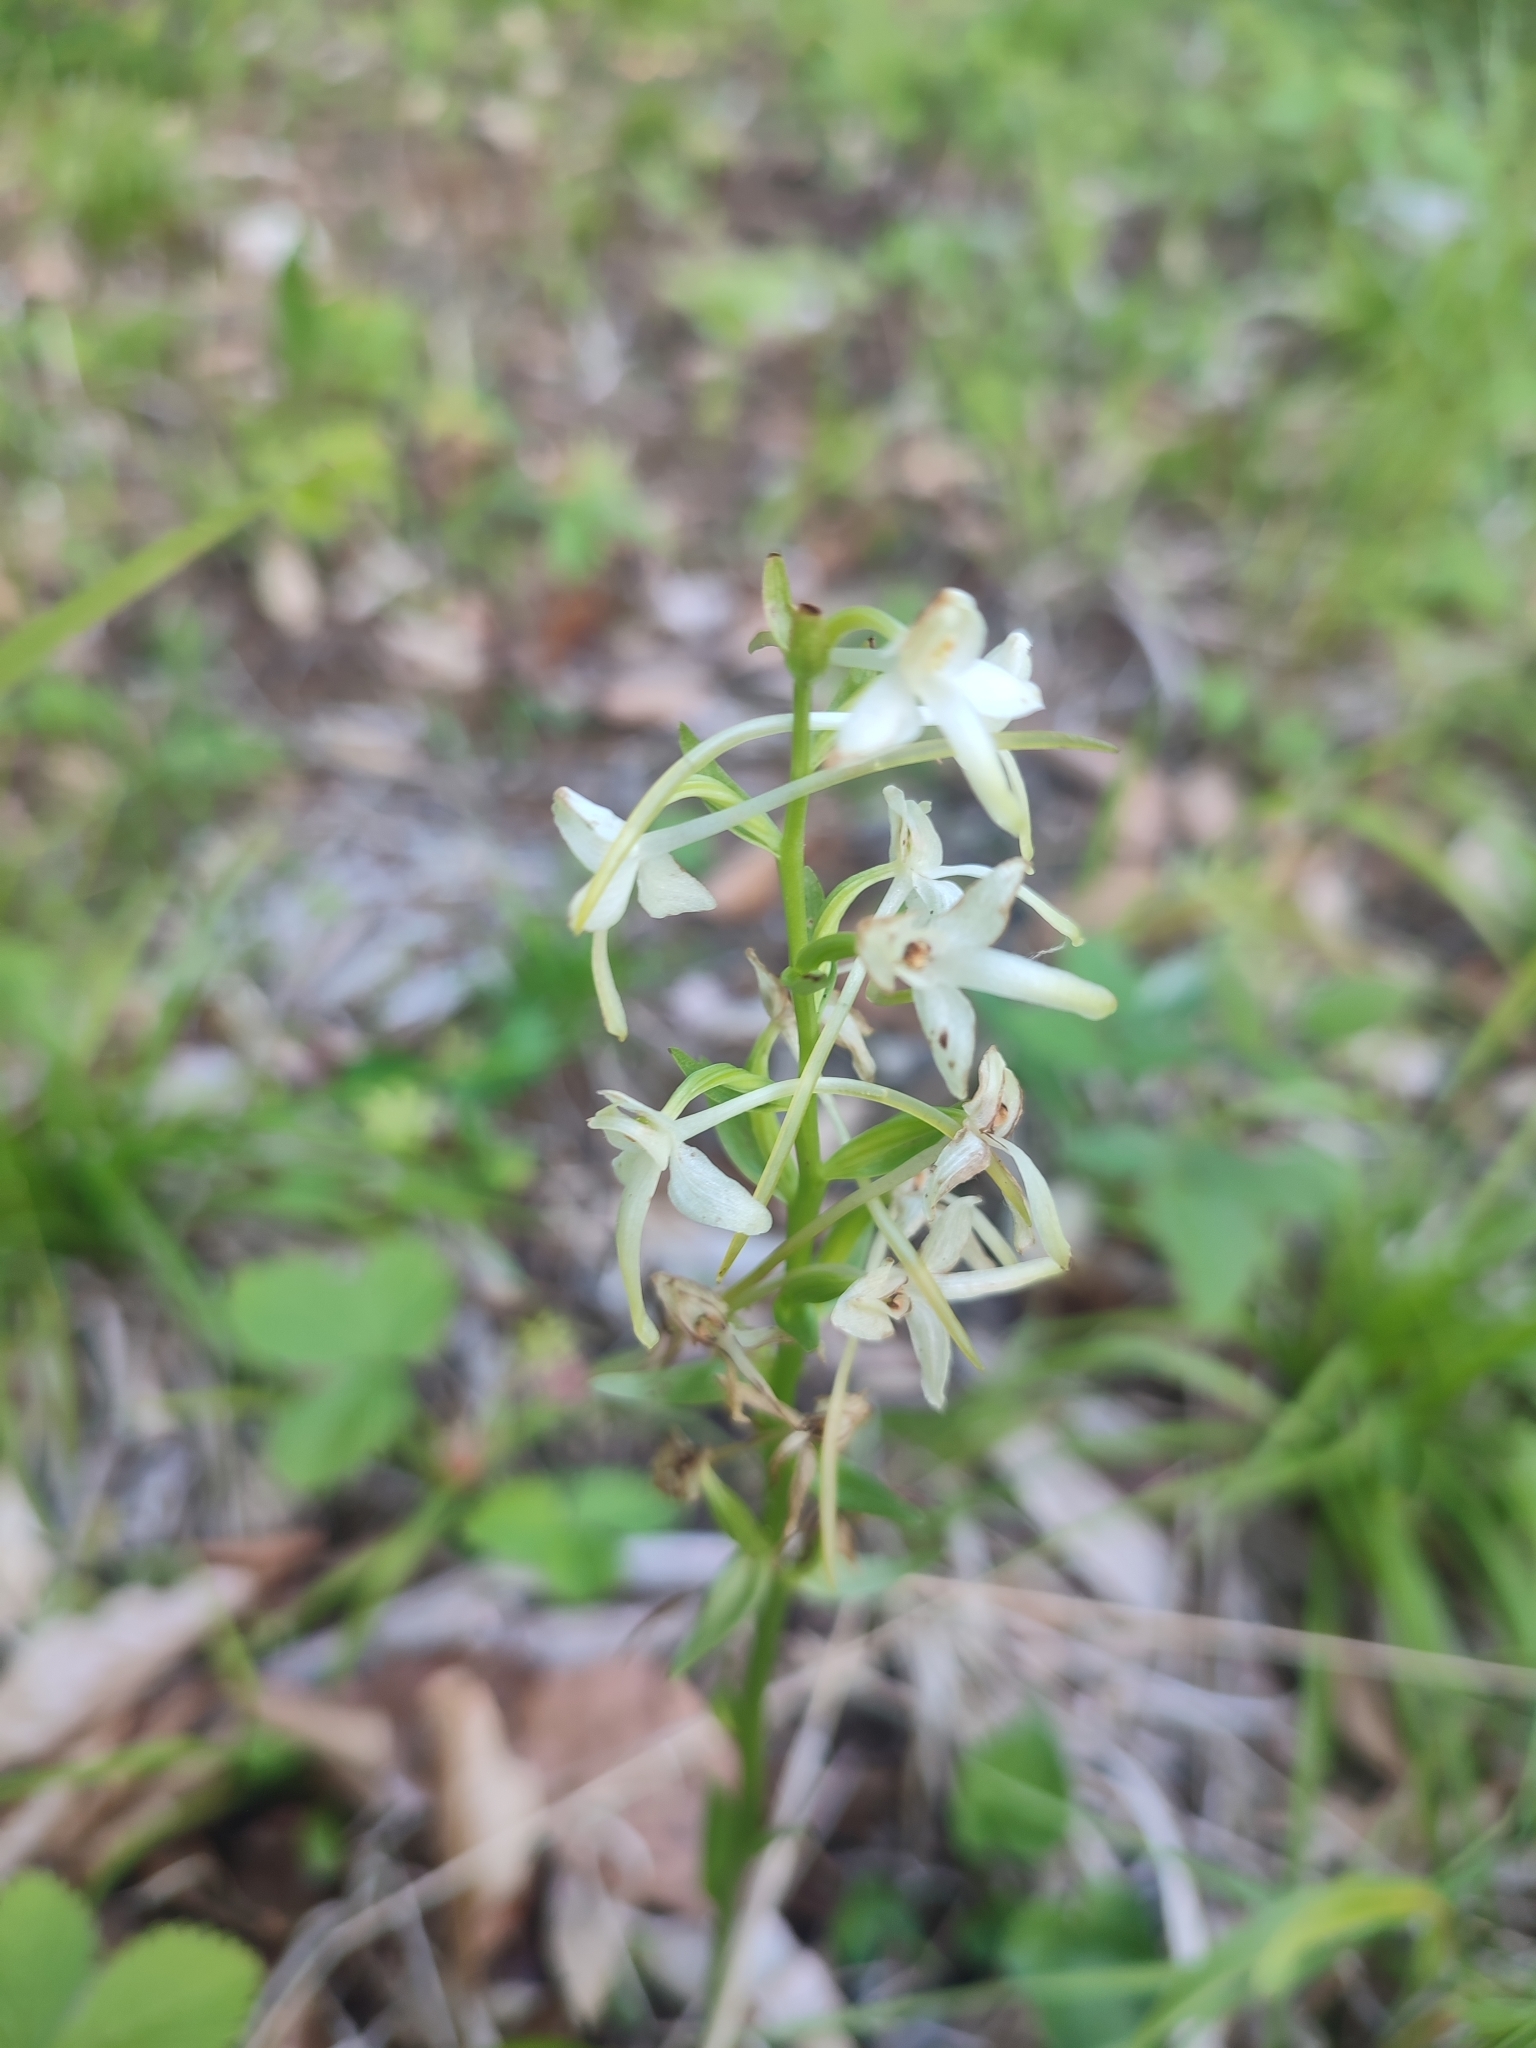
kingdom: Plantae
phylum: Tracheophyta
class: Liliopsida
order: Asparagales
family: Orchidaceae
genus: Platanthera
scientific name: Platanthera bifolia
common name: Lesser butterfly-orchid
